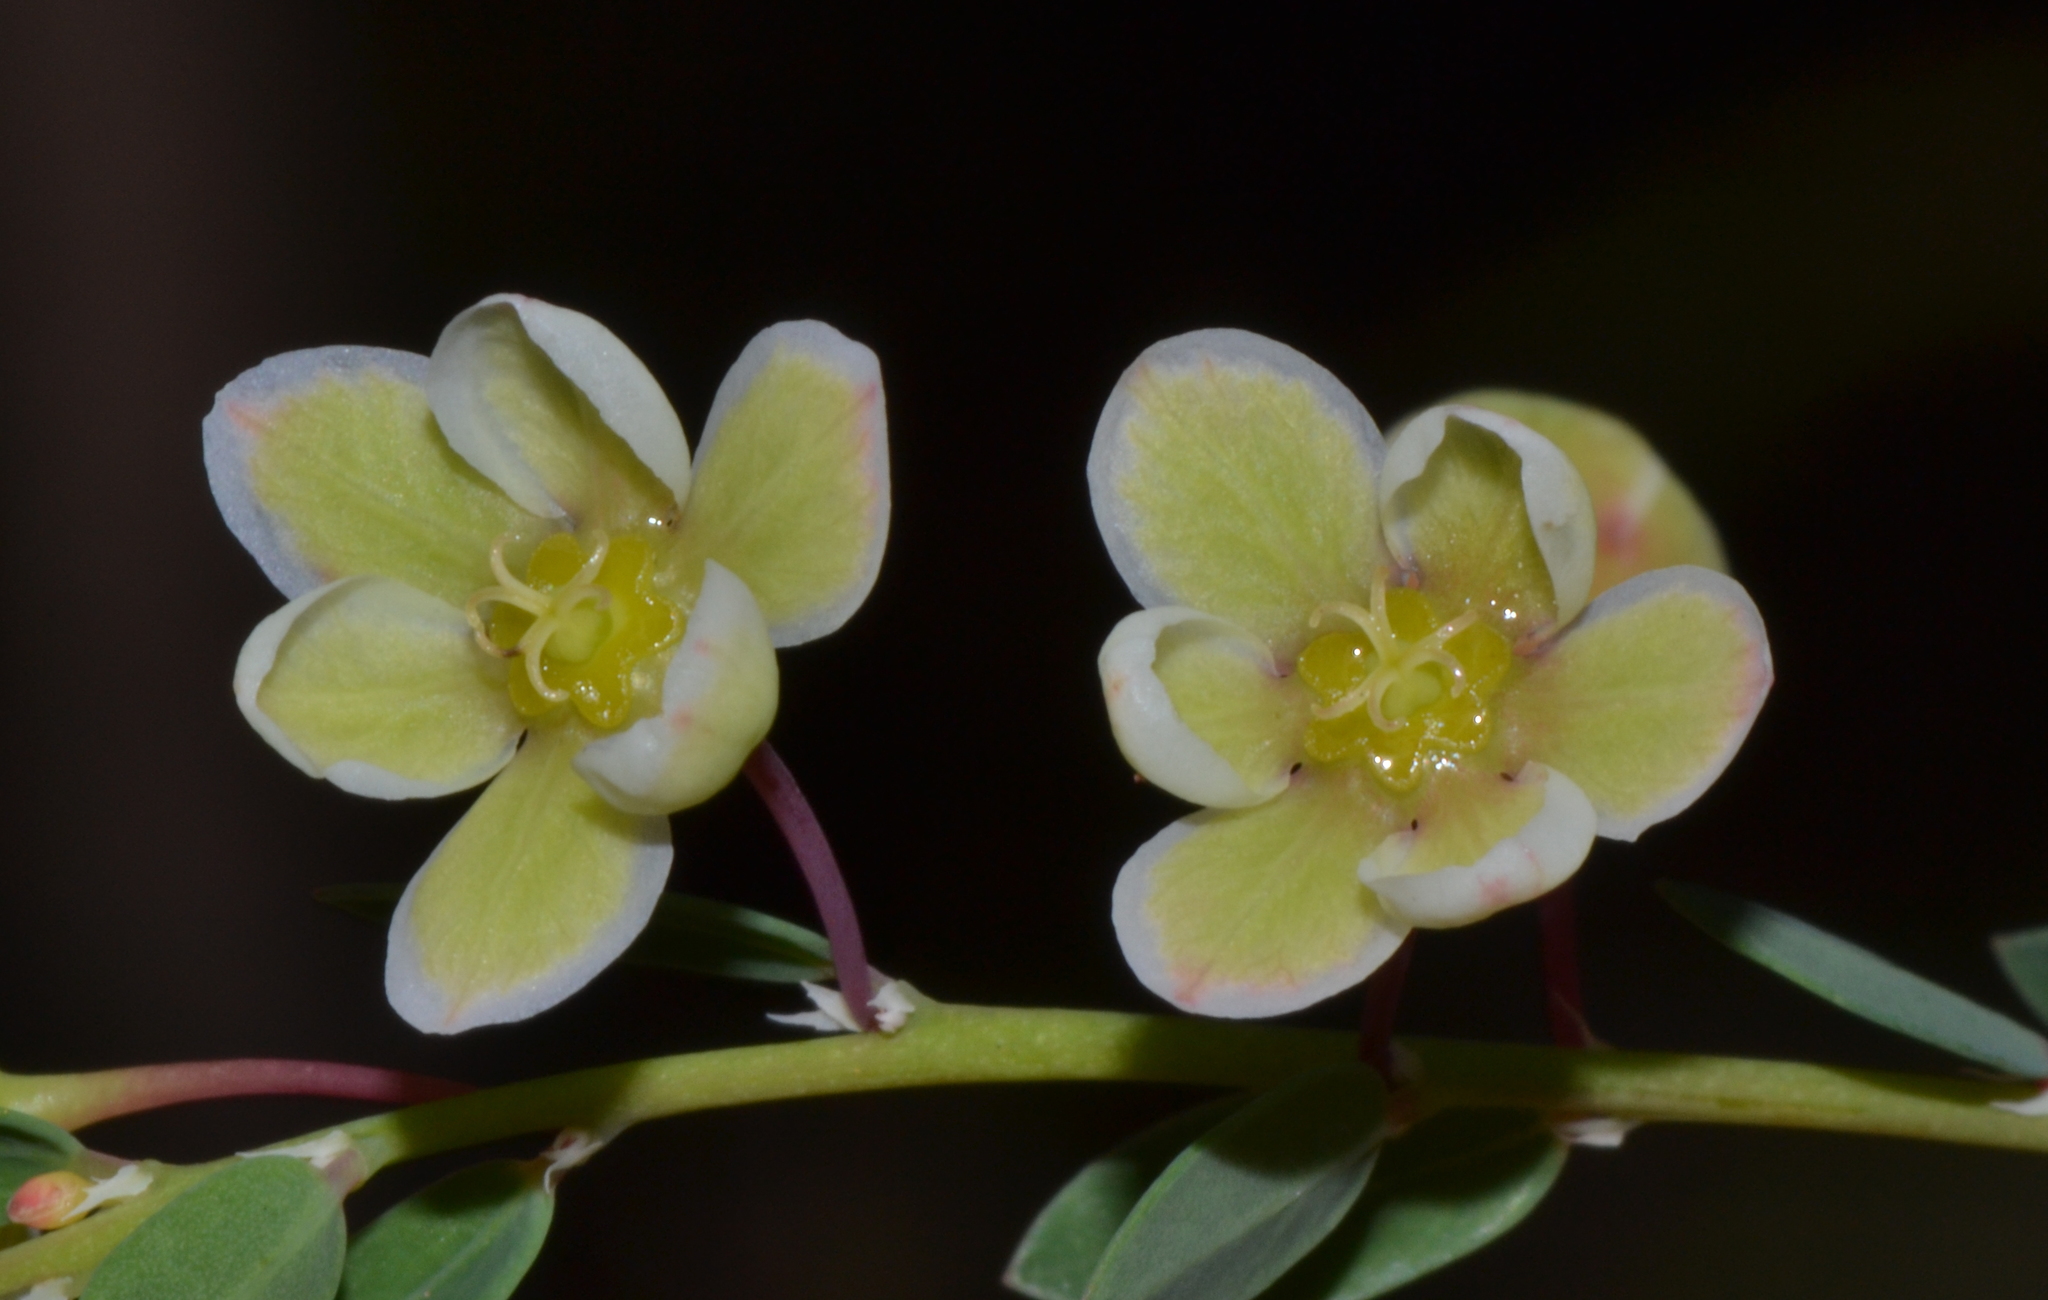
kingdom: Plantae
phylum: Tracheophyta
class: Magnoliopsida
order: Malpighiales
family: Phyllanthaceae
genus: Phyllanthus
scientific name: Phyllanthus calycinus
